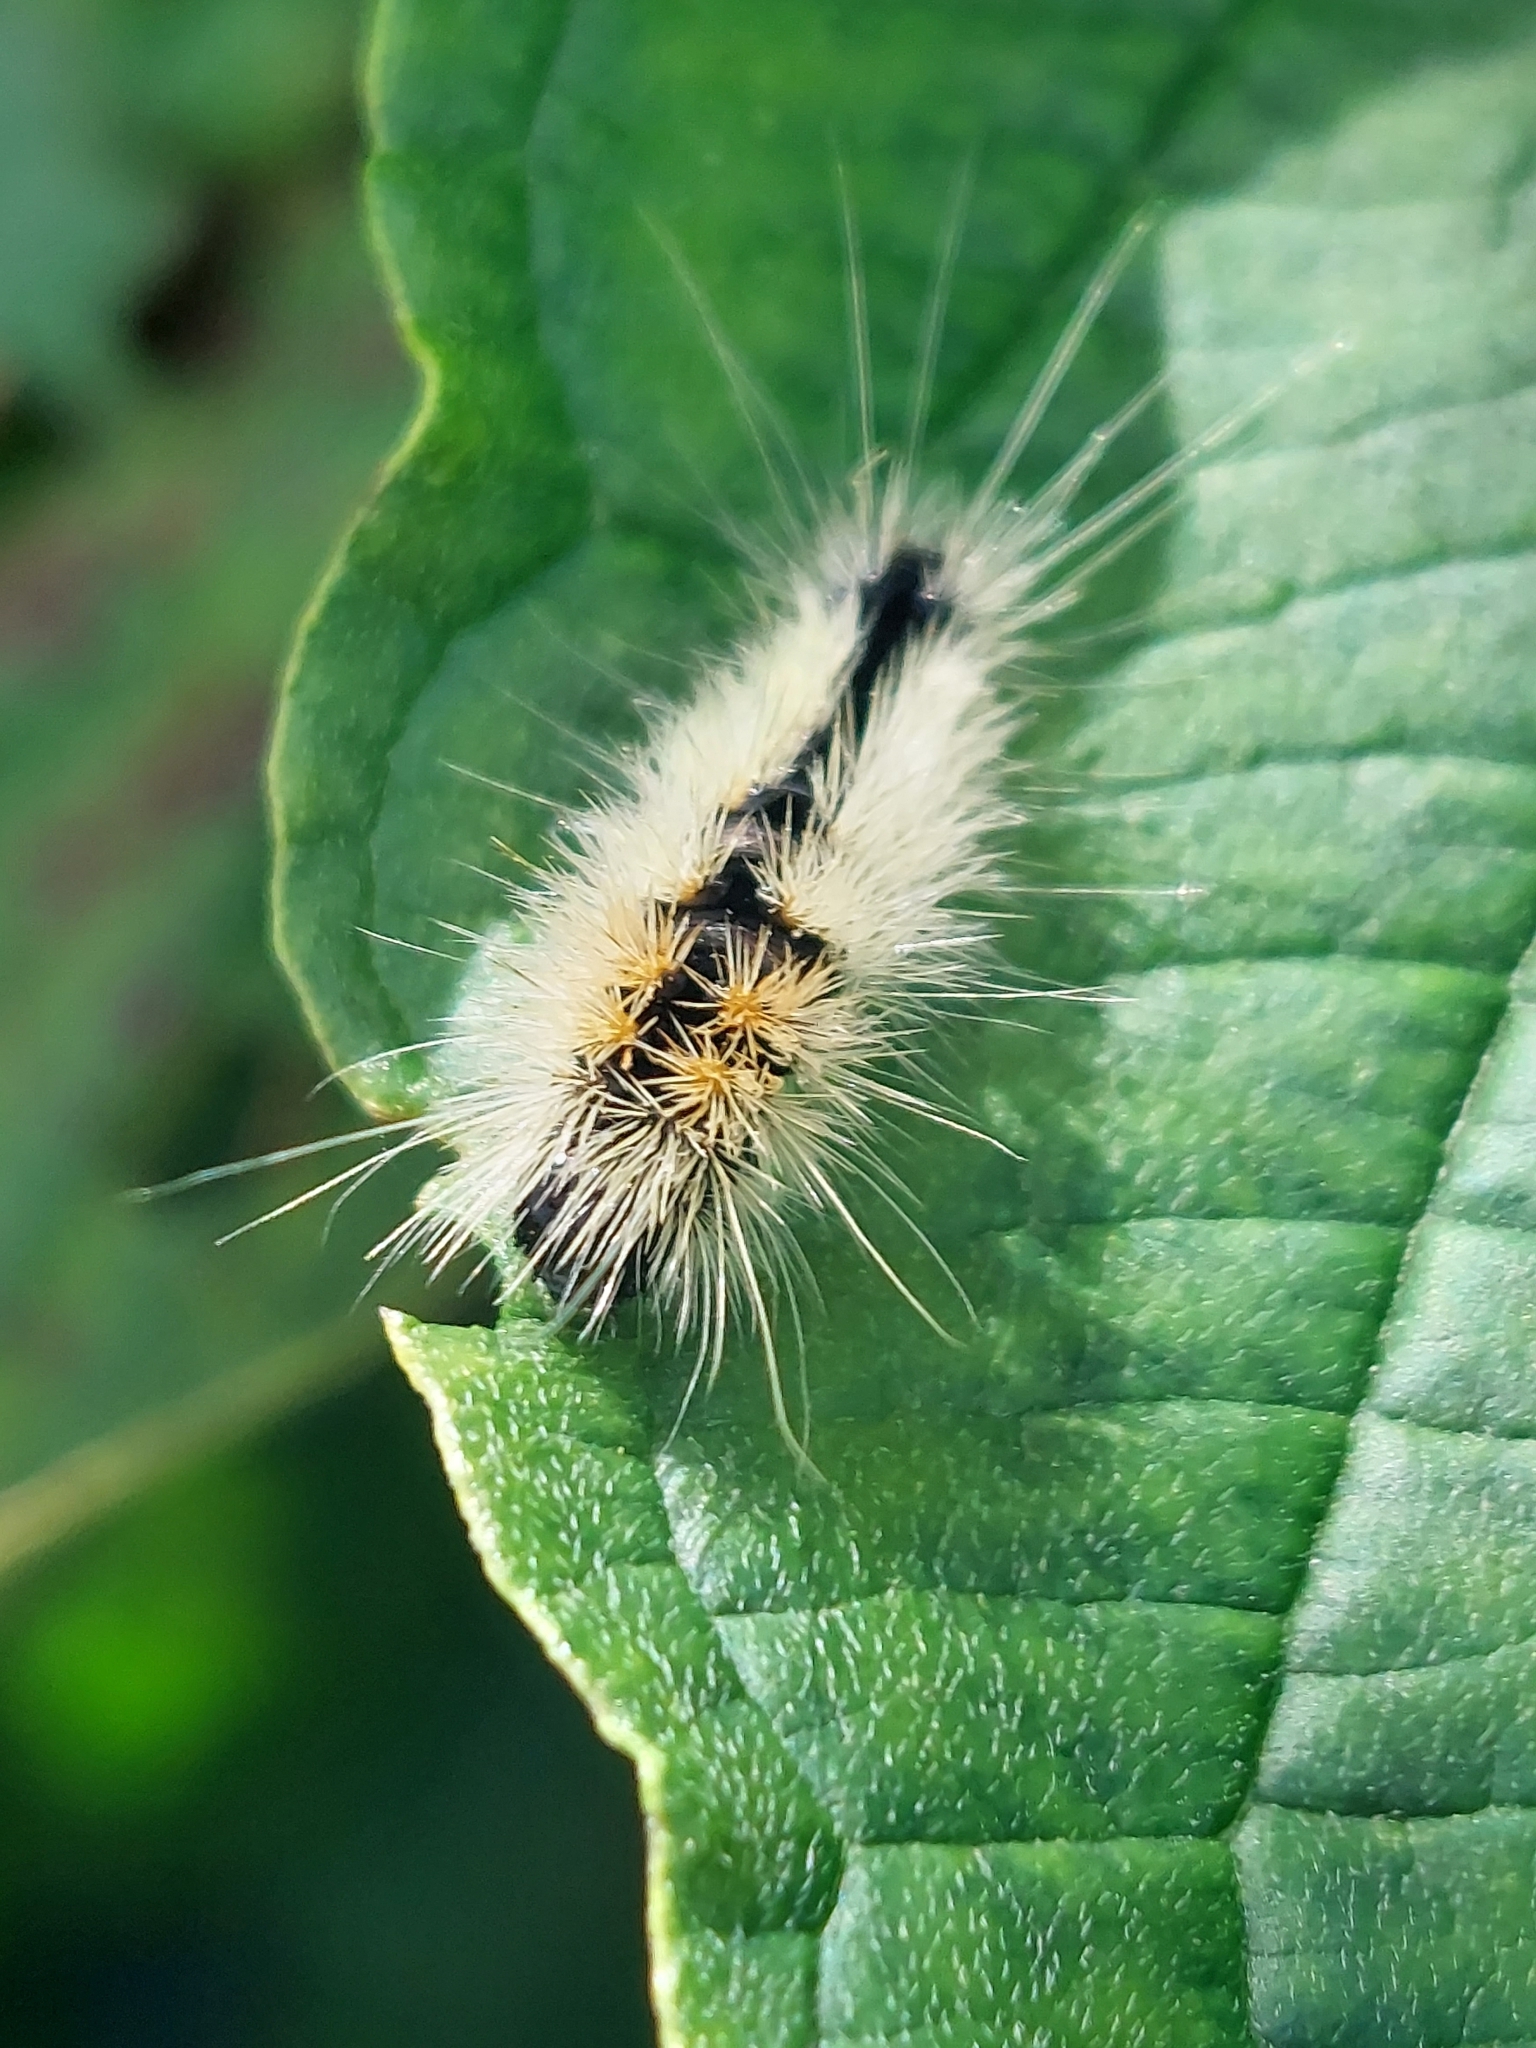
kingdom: Animalia
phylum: Arthropoda
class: Insecta
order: Lepidoptera
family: Noctuidae
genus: Acronicta
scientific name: Acronicta impressa
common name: Impressed dagger
